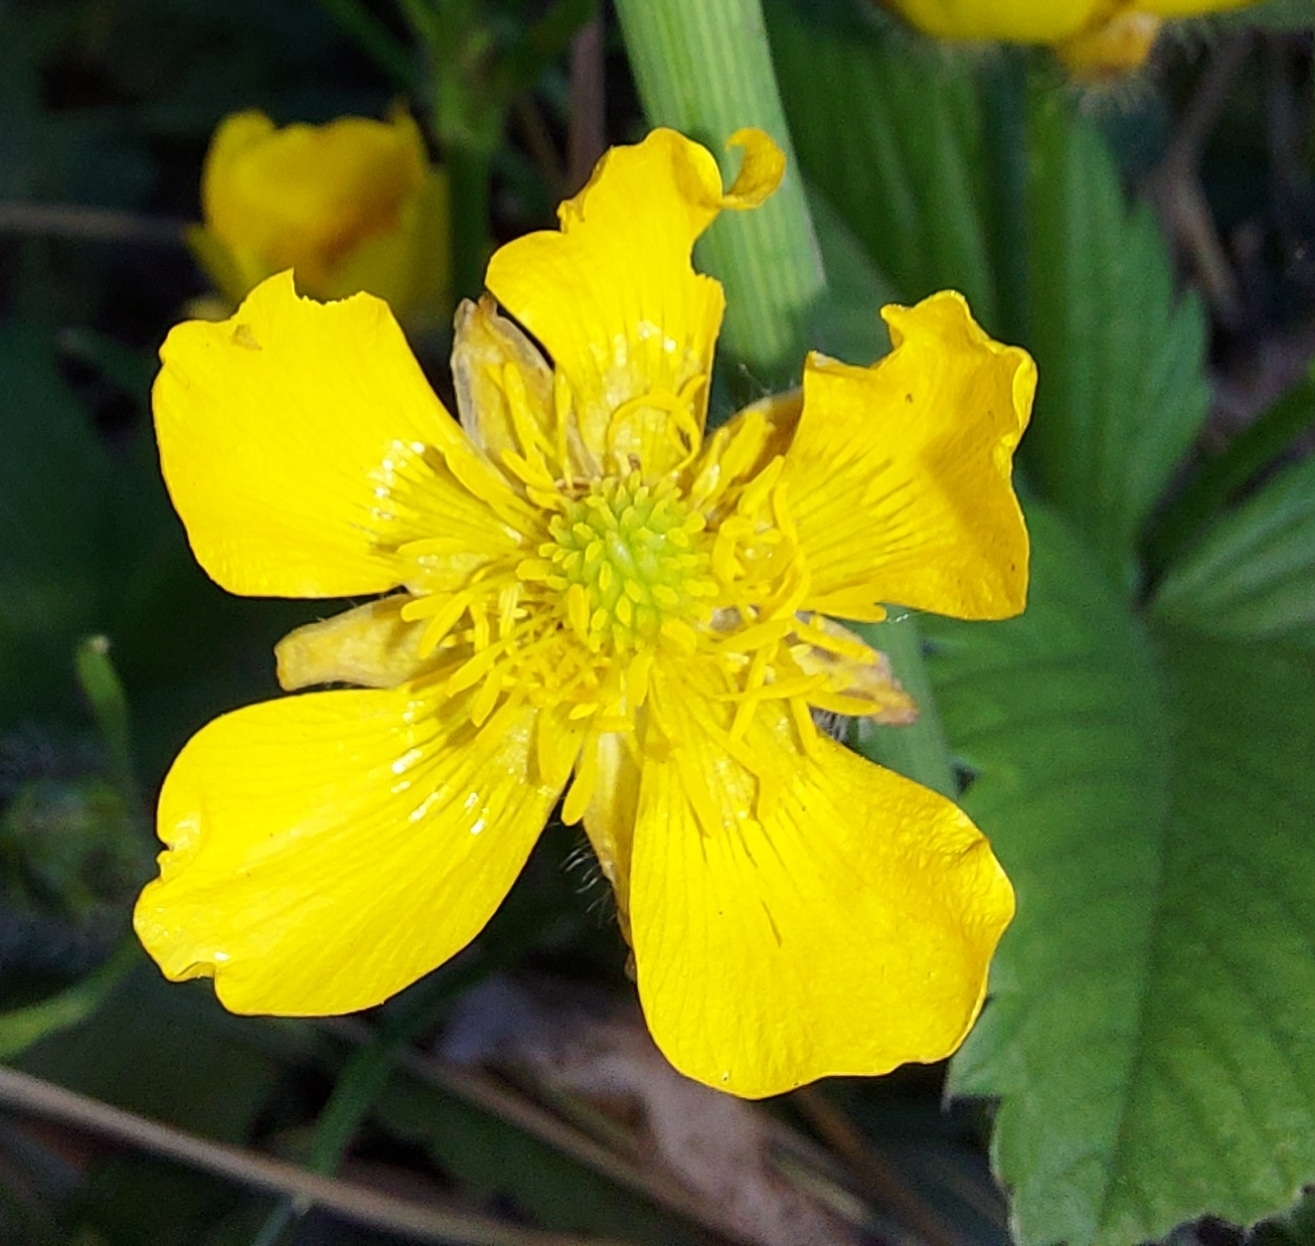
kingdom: Plantae
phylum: Tracheophyta
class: Magnoliopsida
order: Ranunculales
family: Ranunculaceae
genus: Ranunculus
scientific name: Ranunculus polyanthemos
